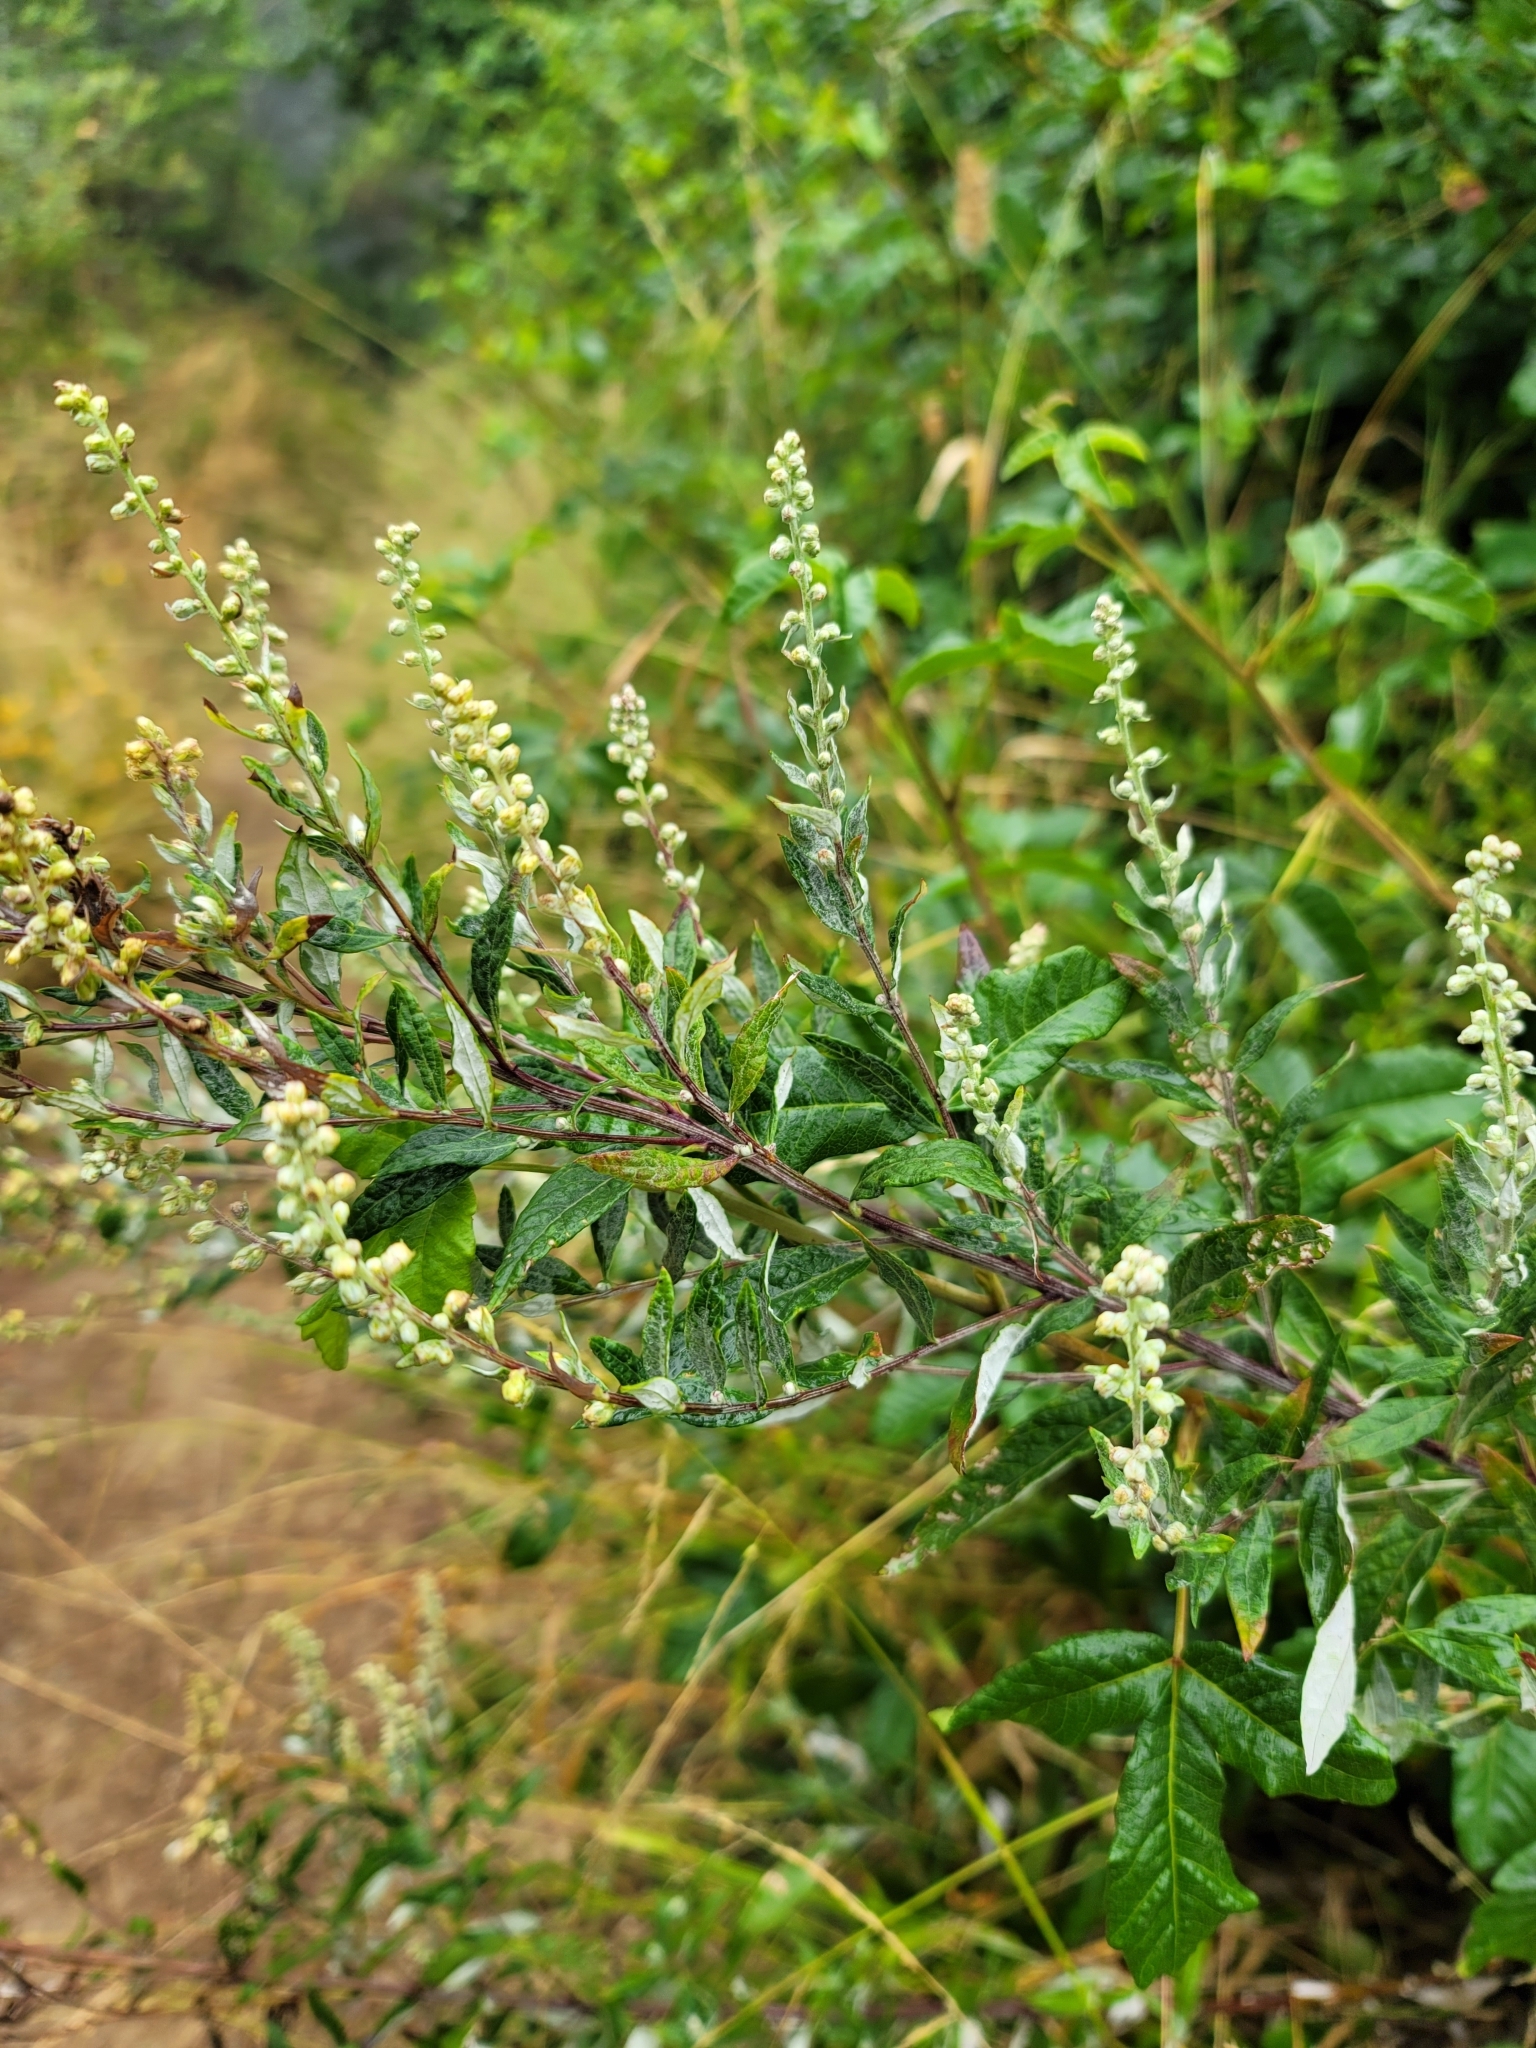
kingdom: Plantae
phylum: Tracheophyta
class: Magnoliopsida
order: Asterales
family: Asteraceae
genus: Artemisia
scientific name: Artemisia douglasiana
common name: Northwest mugwort
